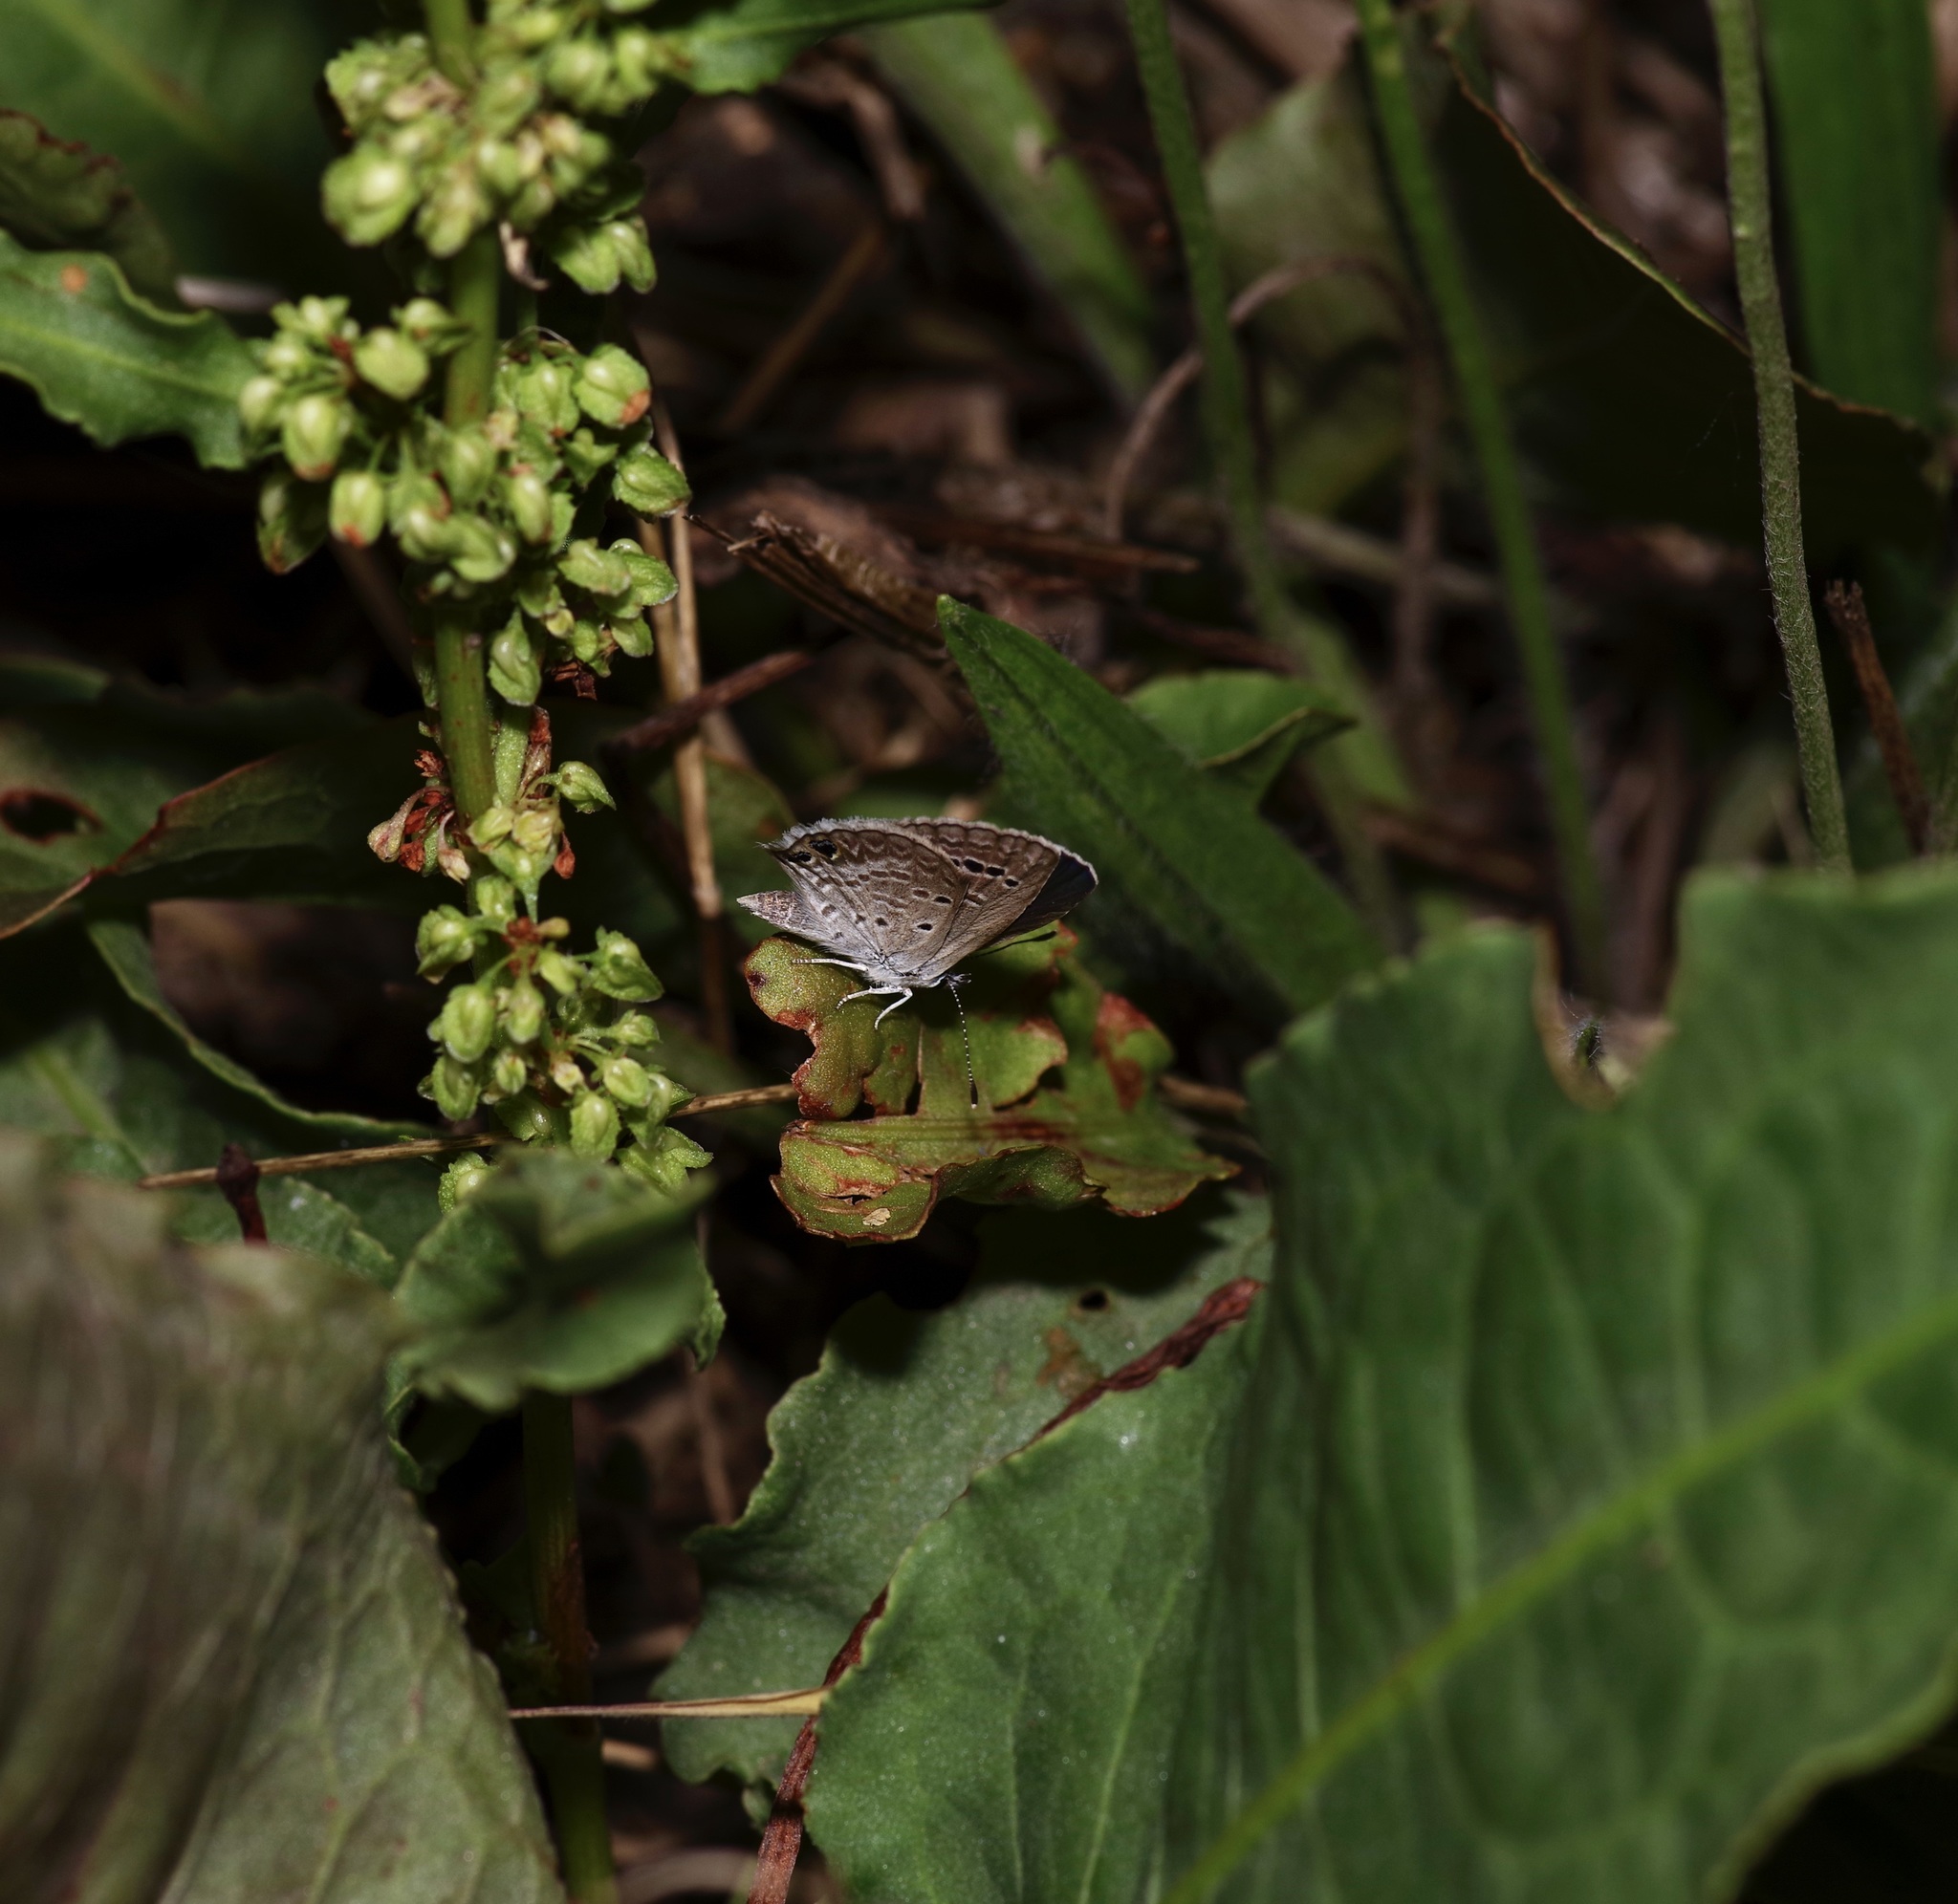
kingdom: Animalia
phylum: Arthropoda
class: Insecta
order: Lepidoptera
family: Lycaenidae
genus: Echinargus
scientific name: Echinargus isola
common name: Reakirt's blue
